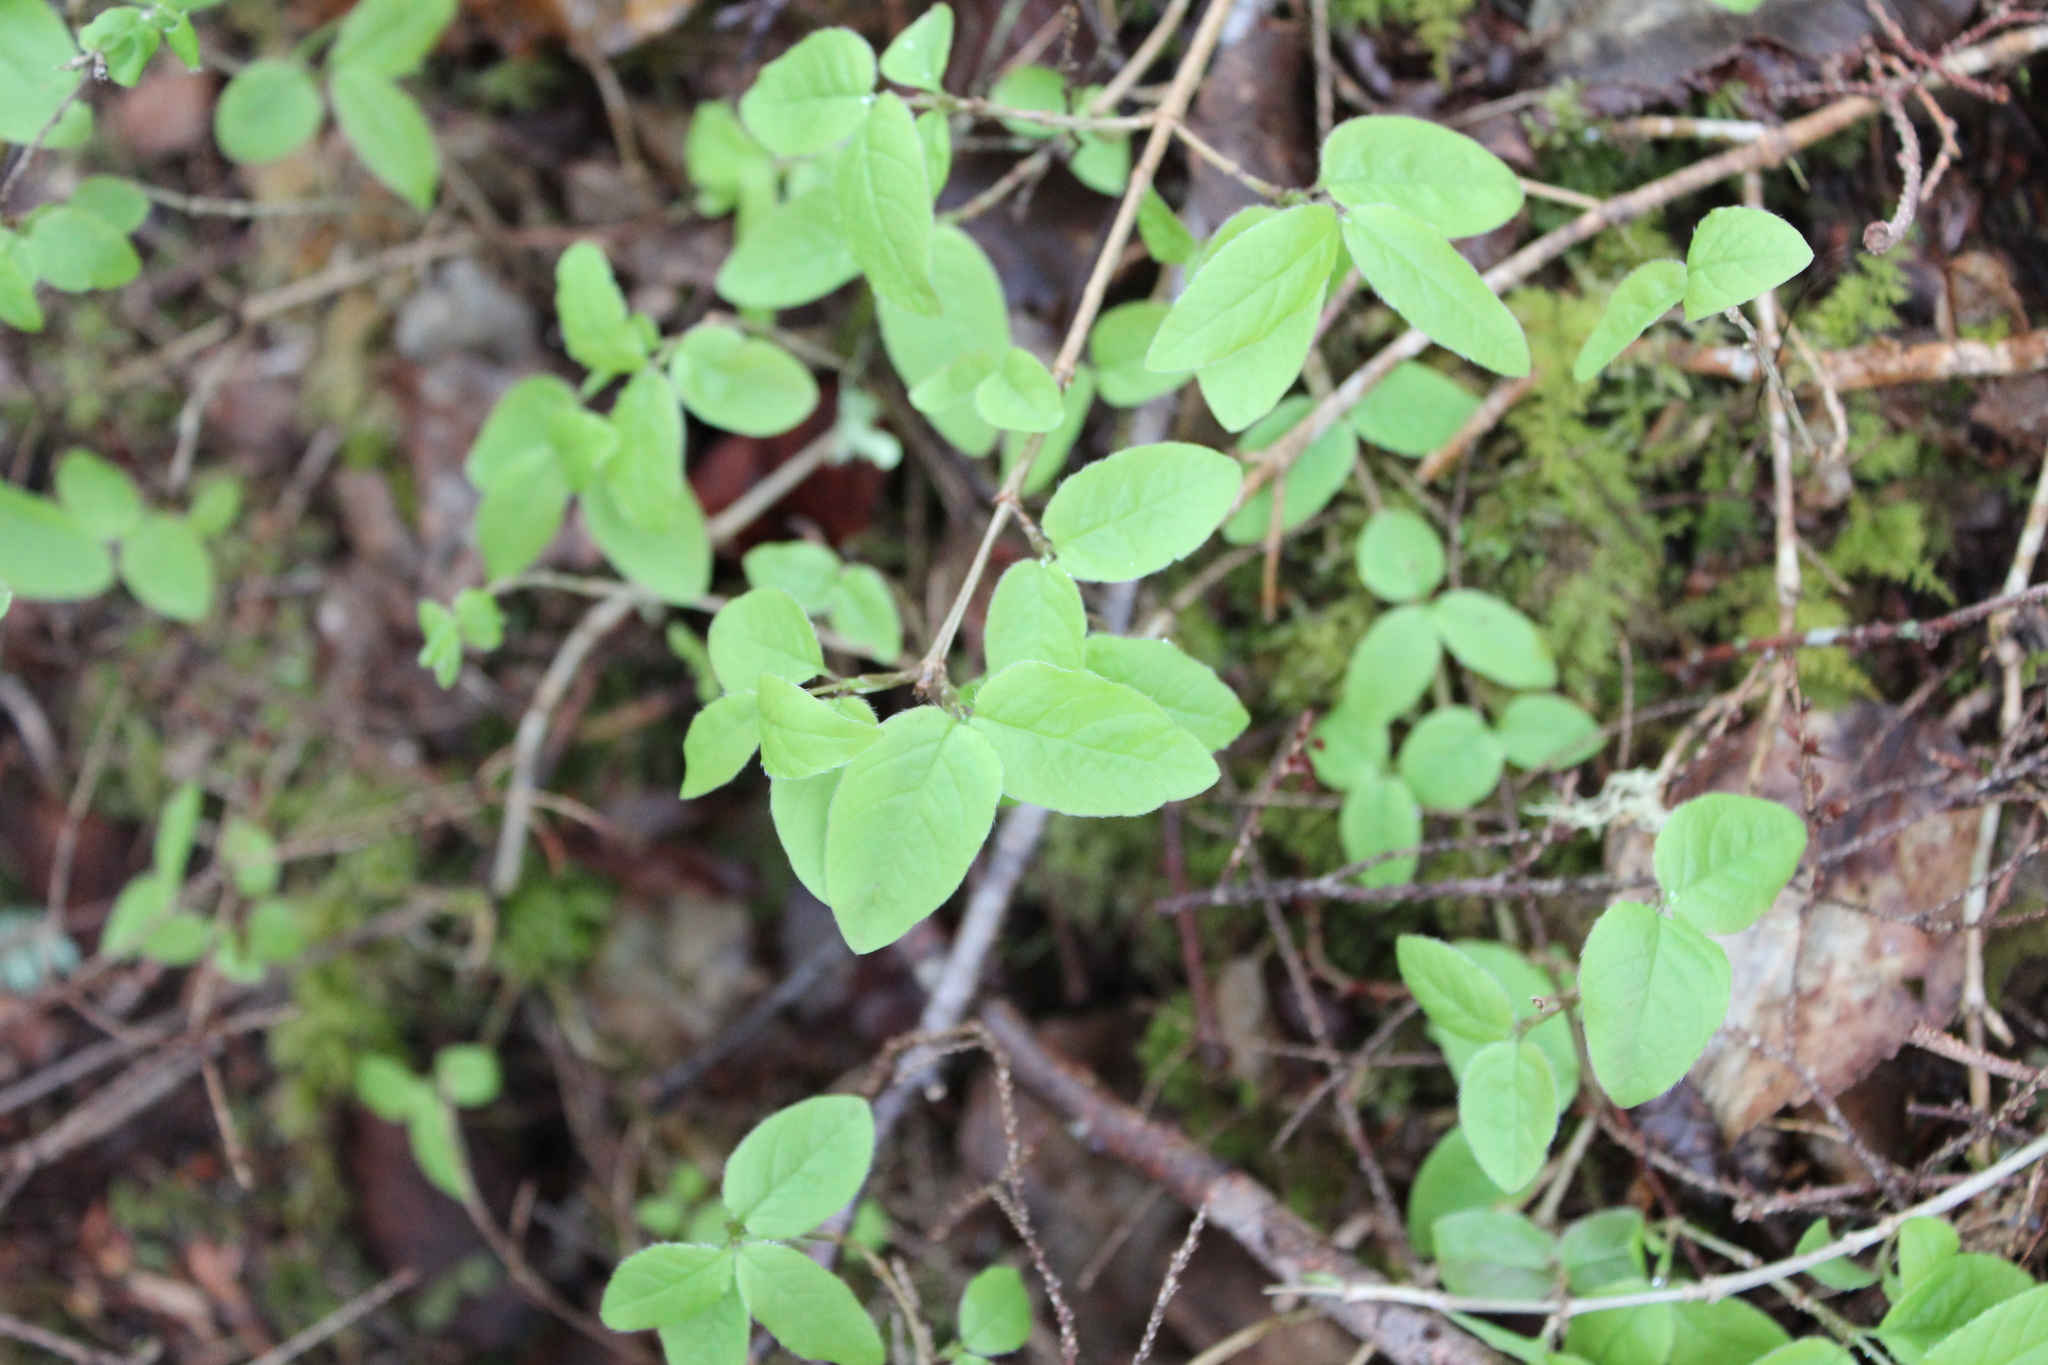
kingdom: Plantae
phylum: Tracheophyta
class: Magnoliopsida
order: Dipsacales
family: Caprifoliaceae
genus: Lonicera
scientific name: Lonicera canadensis
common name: American fly-honeysuckle
